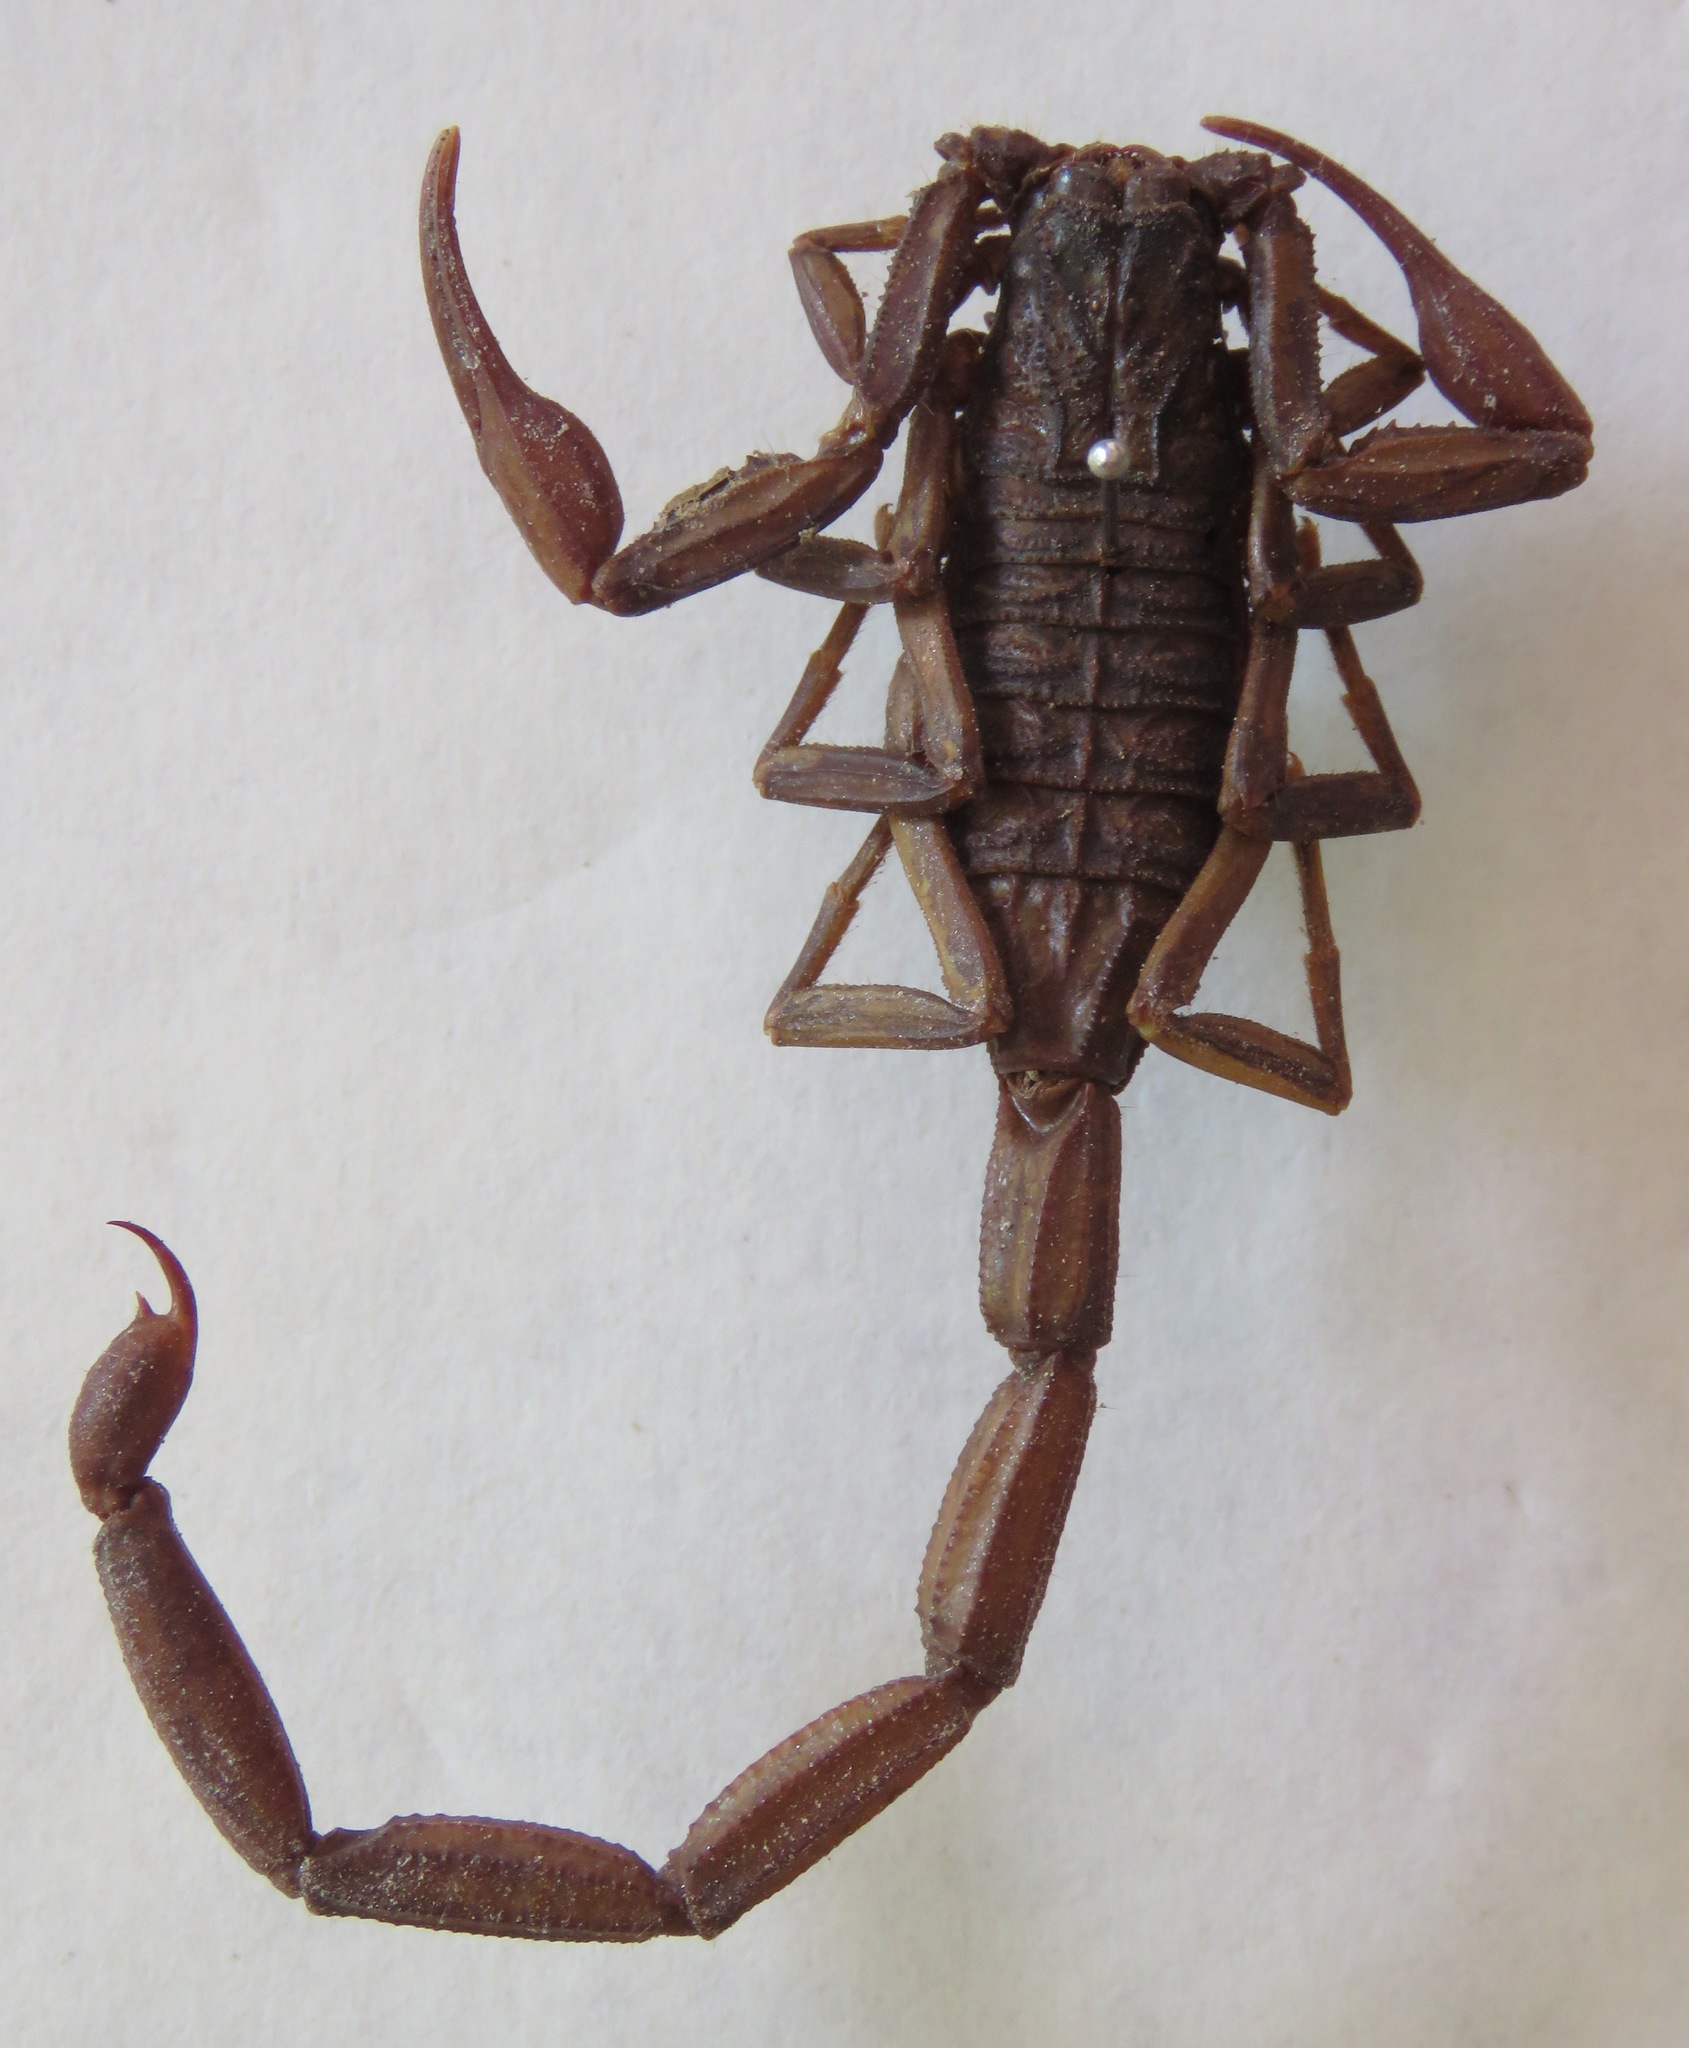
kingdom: Animalia
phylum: Arthropoda
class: Arachnida
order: Scorpiones
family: Buthidae
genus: Centruroides
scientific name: Centruroides gracilis
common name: Scorpions
